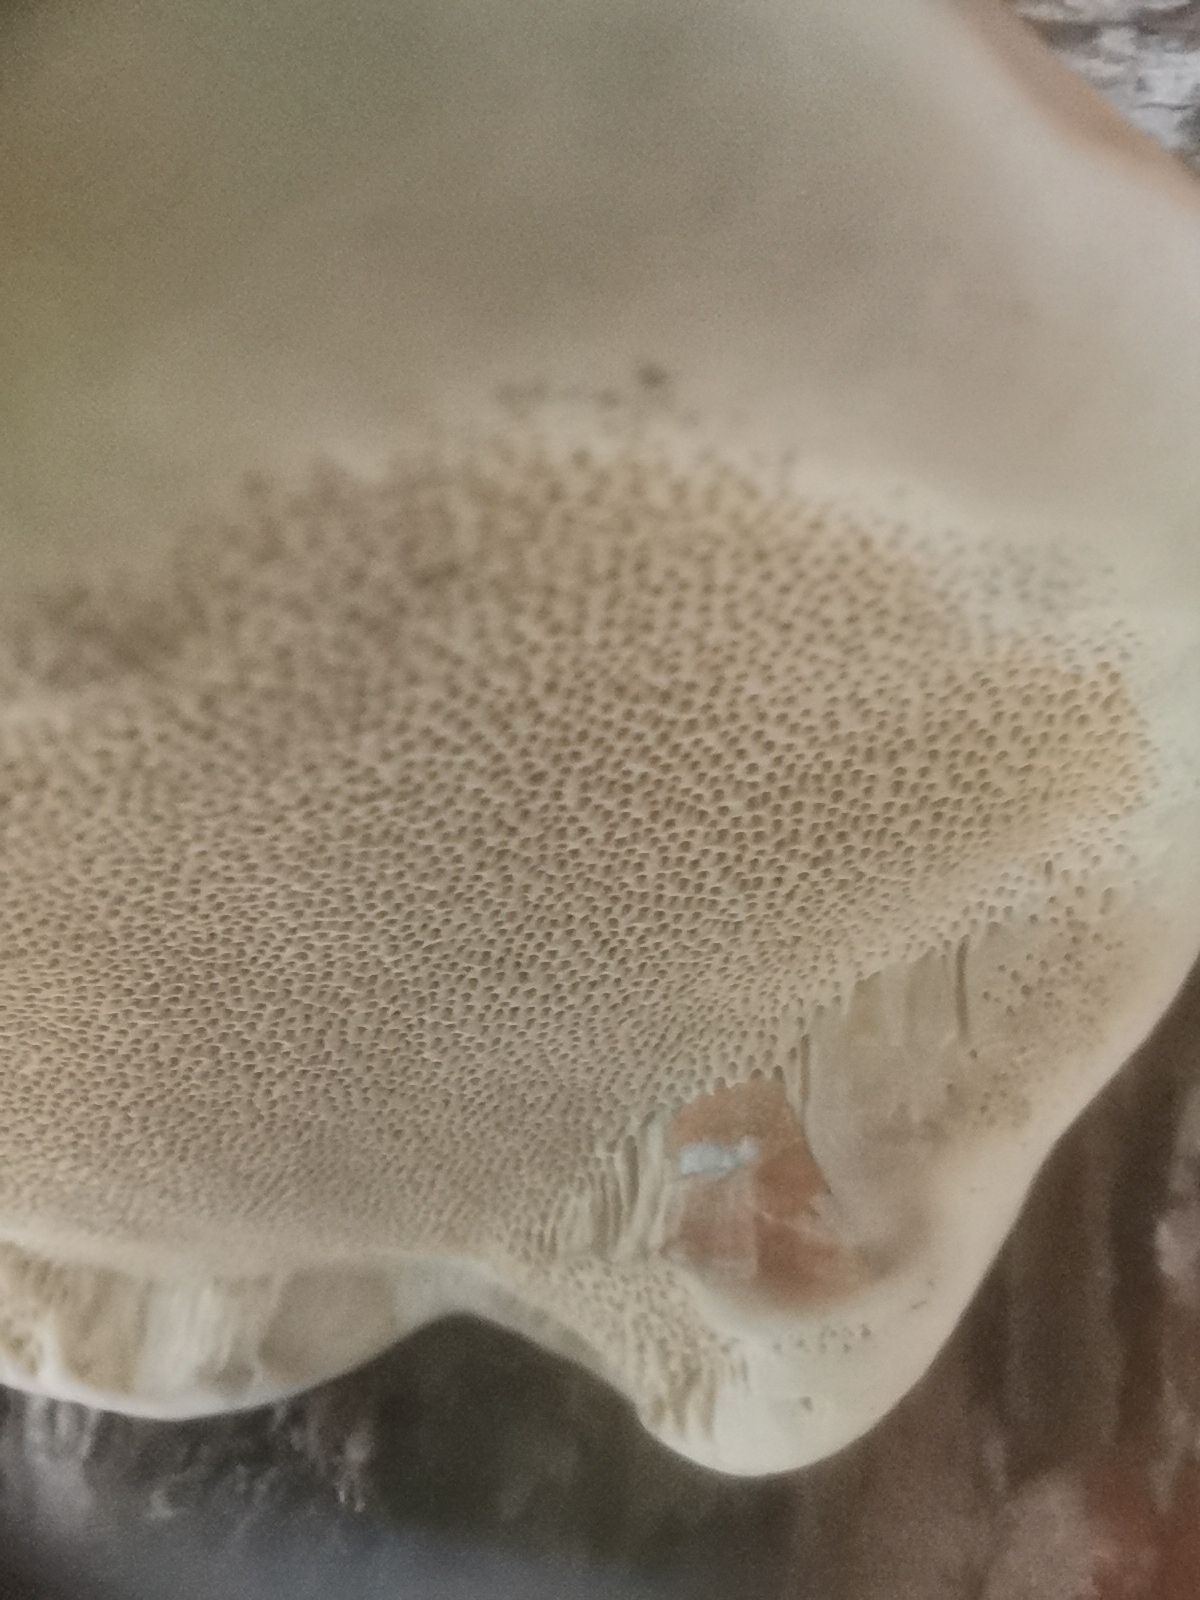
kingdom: Fungi
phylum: Basidiomycota
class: Agaricomycetes
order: Polyporales
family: Fomitopsidaceae
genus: Fomitopsis
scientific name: Fomitopsis pinicola
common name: Red-belted bracket
